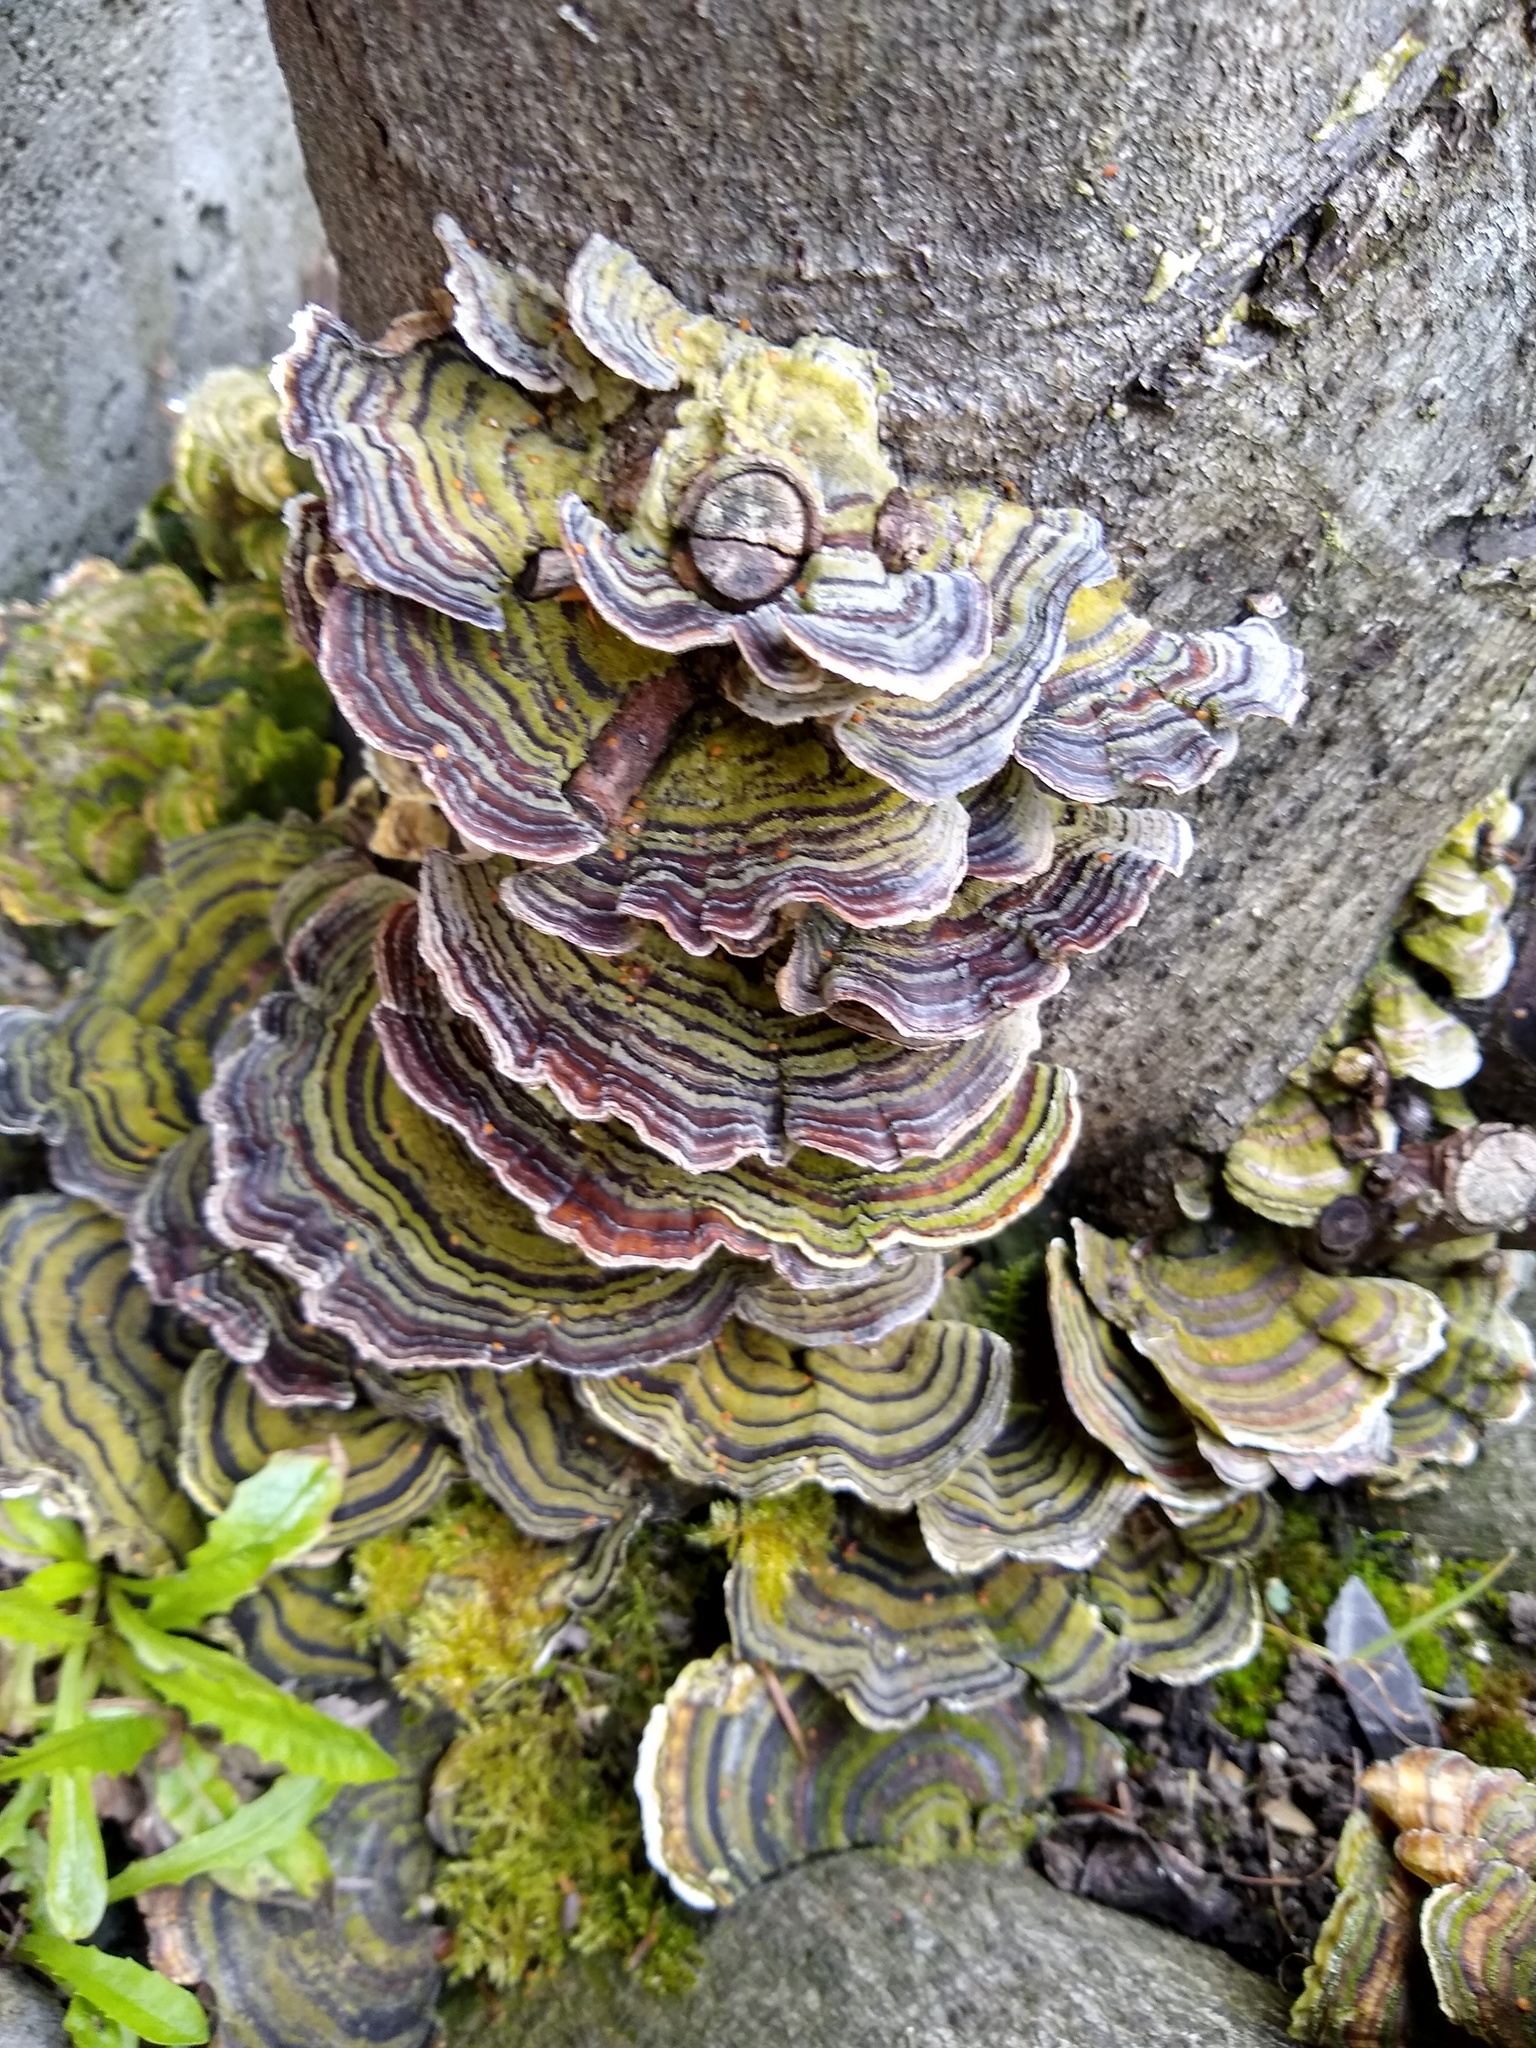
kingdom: Fungi
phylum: Basidiomycota
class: Agaricomycetes
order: Polyporales
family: Polyporaceae
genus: Trametes
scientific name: Trametes versicolor
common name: Turkeytail
